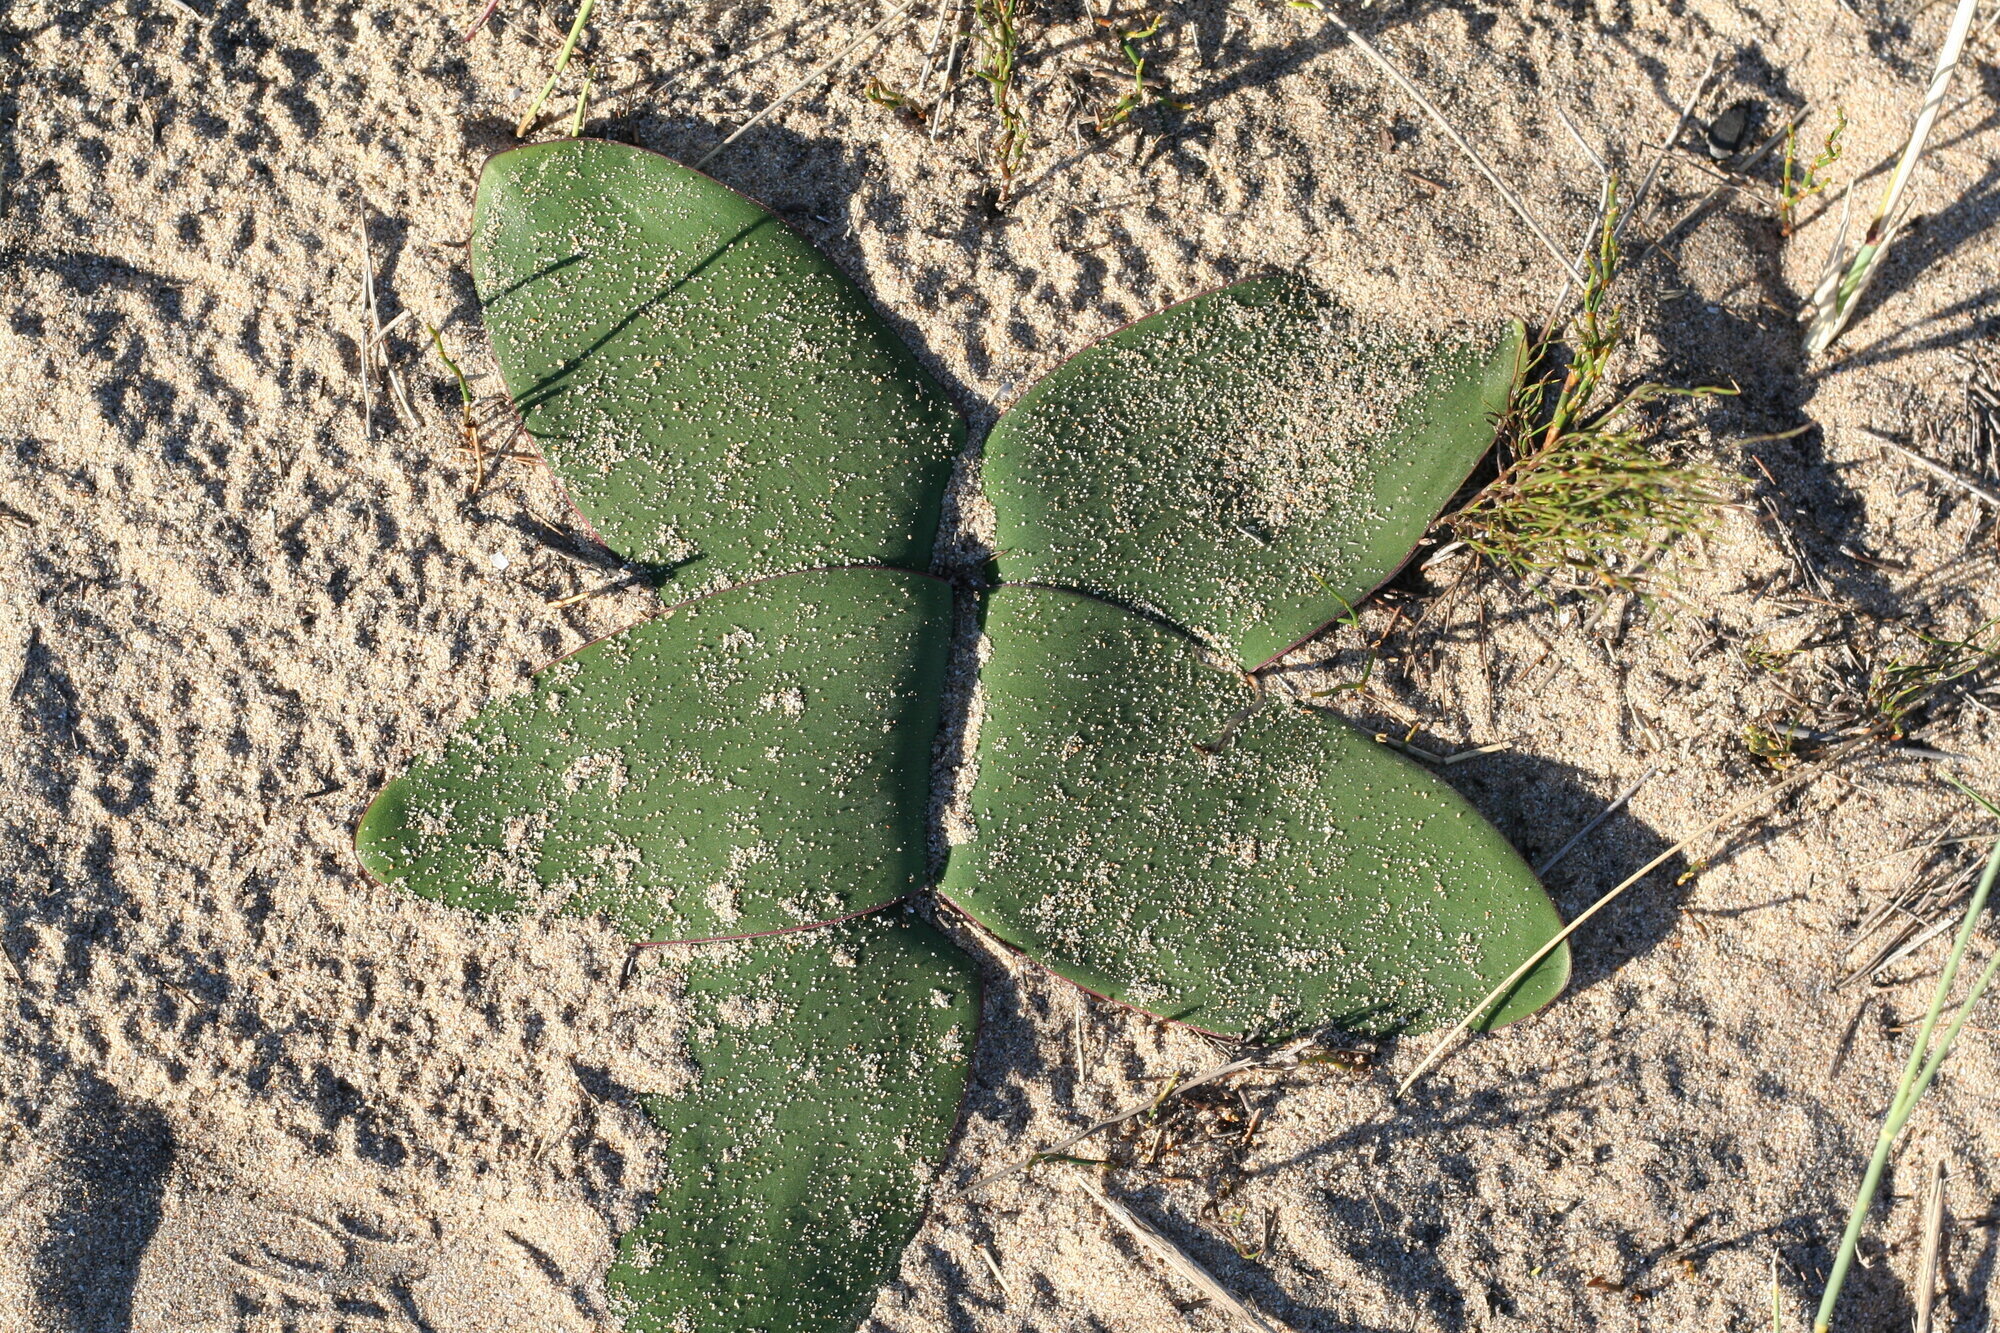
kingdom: Plantae
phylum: Tracheophyta
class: Liliopsida
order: Asparagales
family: Amaryllidaceae
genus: Brunsvigia
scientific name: Brunsvigia orientalis
